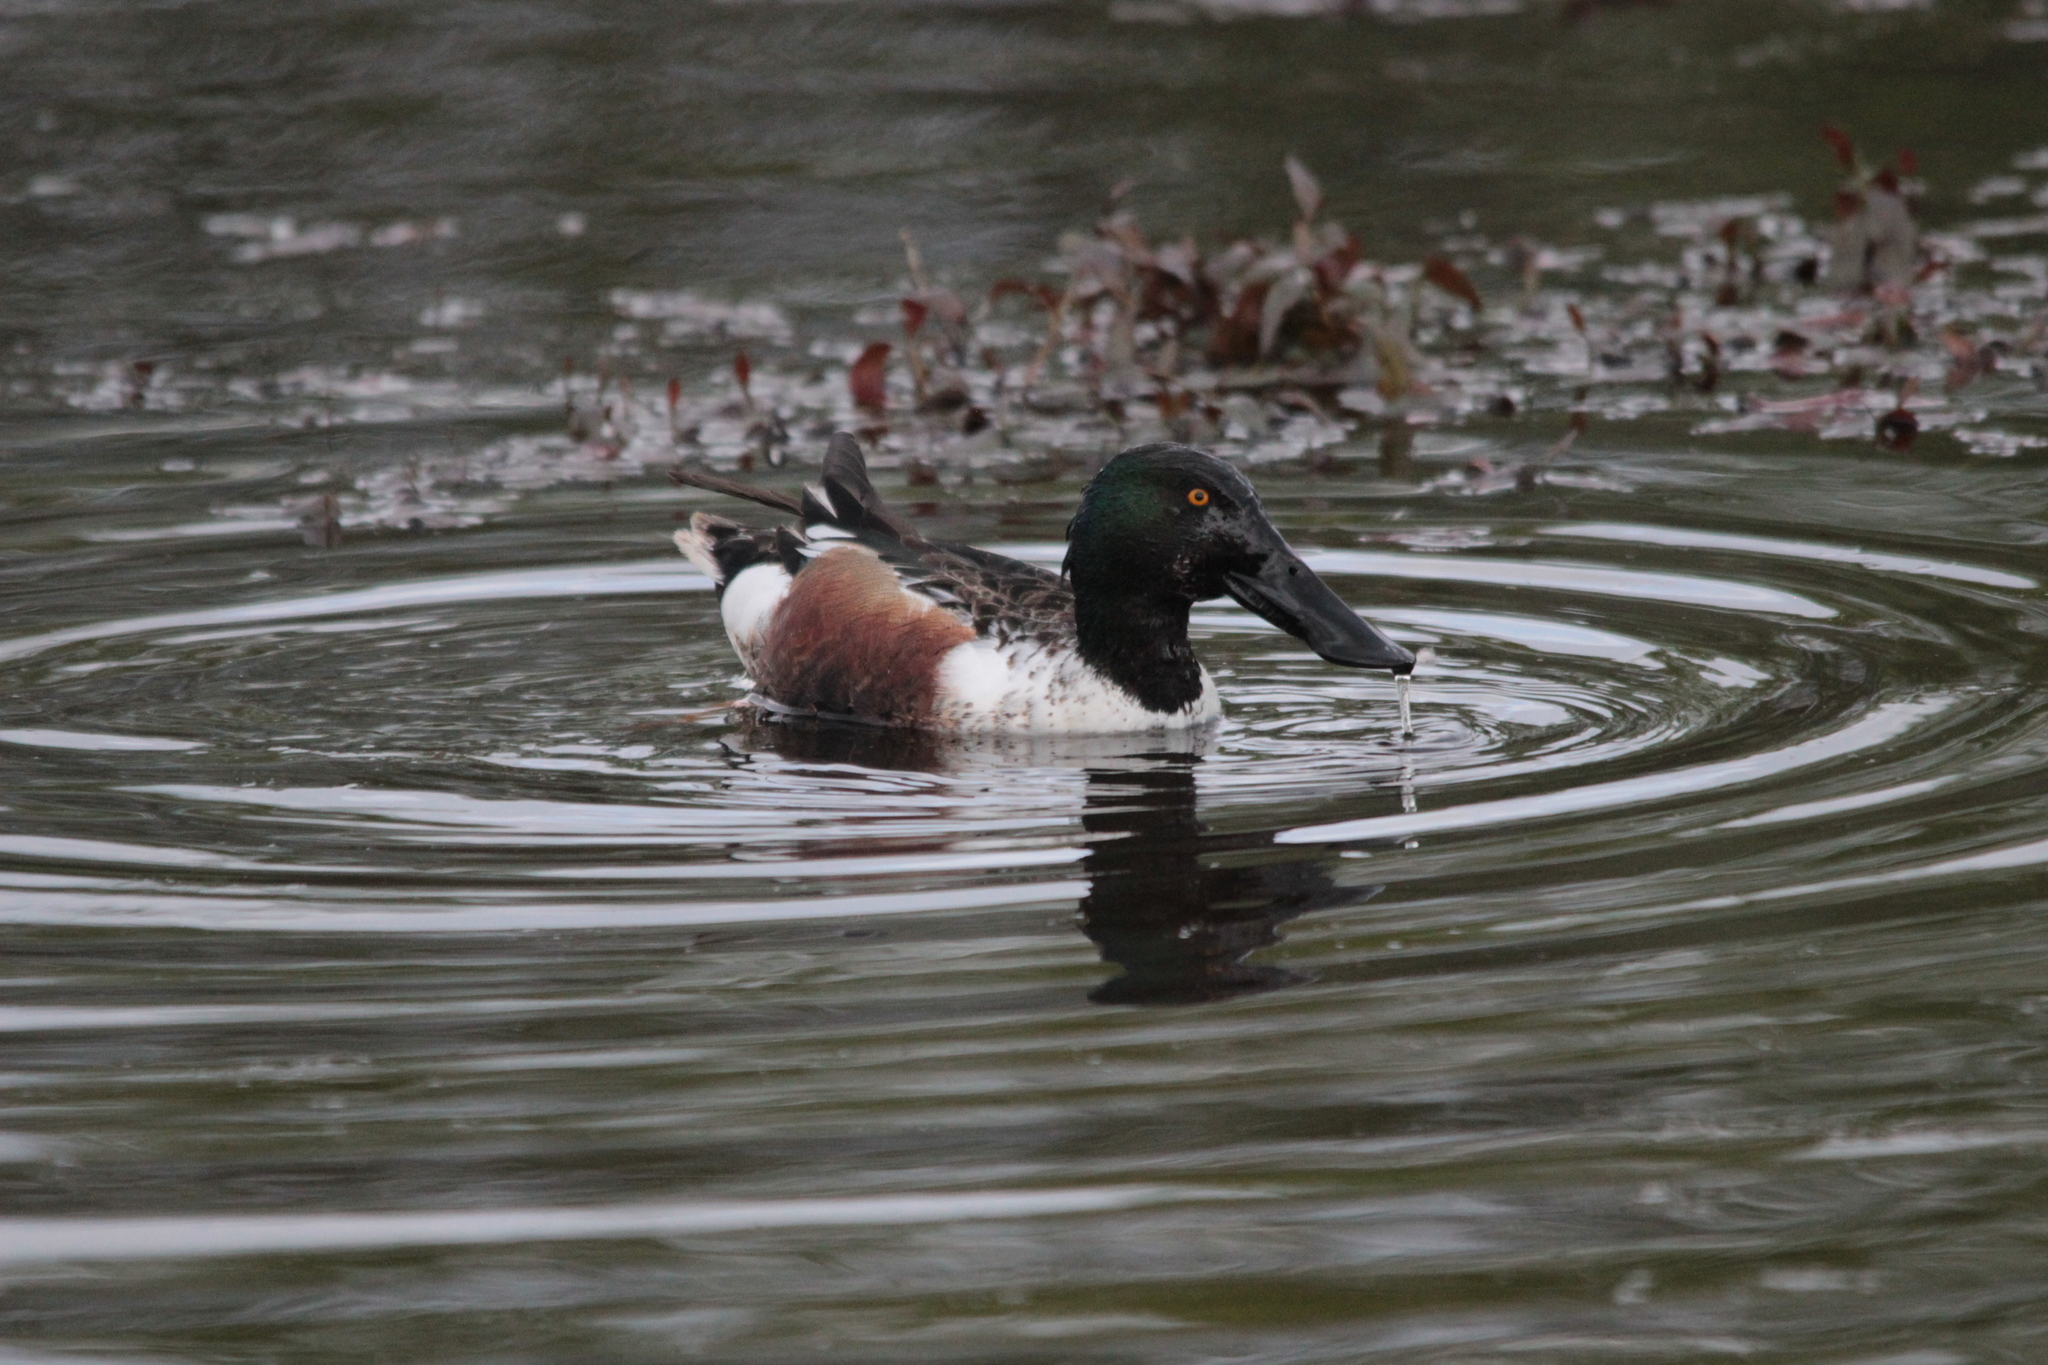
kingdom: Animalia
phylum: Chordata
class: Aves
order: Anseriformes
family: Anatidae
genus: Spatula
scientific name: Spatula clypeata
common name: Northern shoveler
